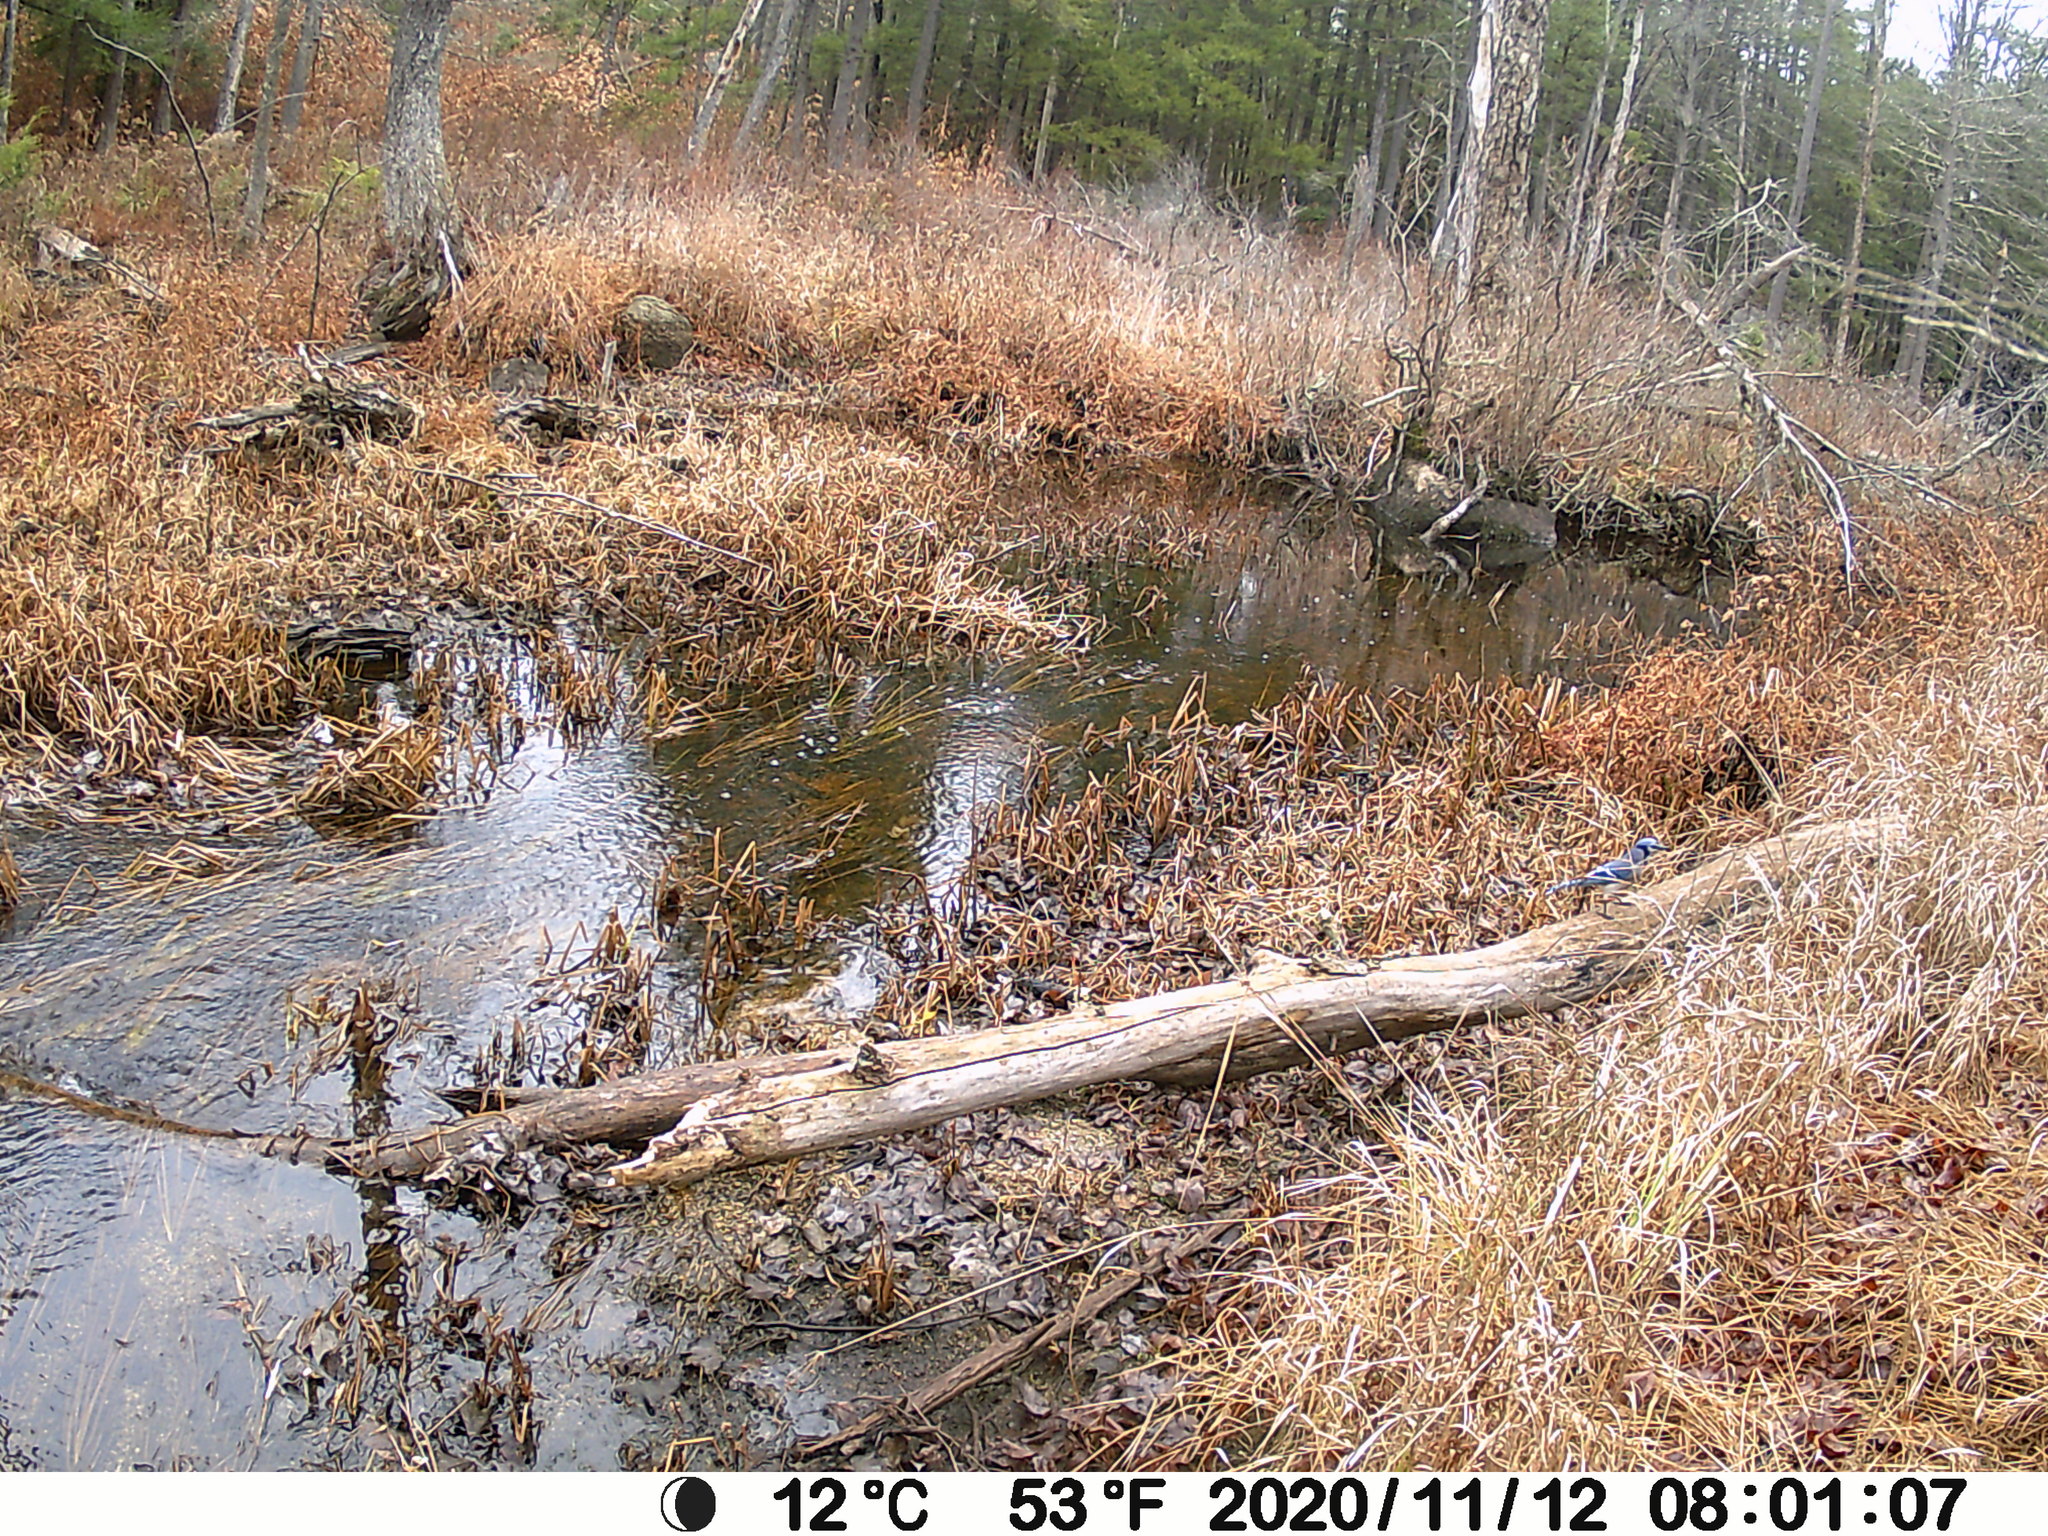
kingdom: Animalia
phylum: Chordata
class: Aves
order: Passeriformes
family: Corvidae
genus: Cyanocitta
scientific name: Cyanocitta cristata
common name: Blue jay
